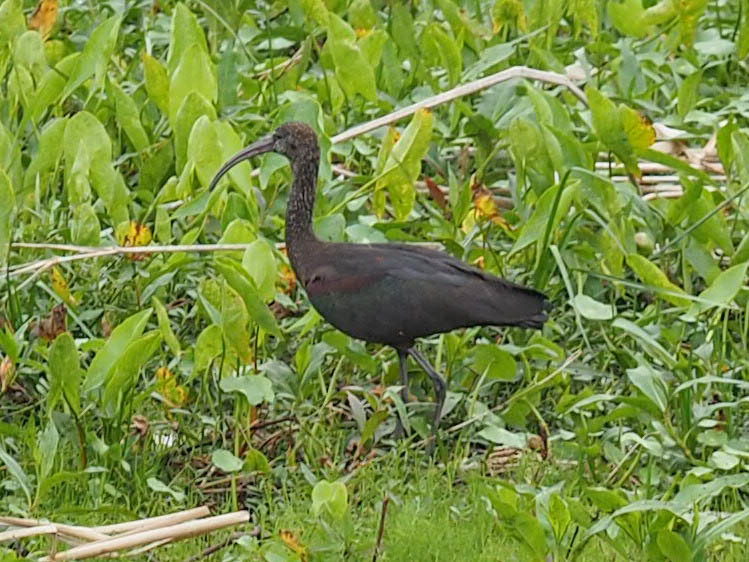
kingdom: Animalia
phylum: Chordata
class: Aves
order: Pelecaniformes
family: Threskiornithidae
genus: Plegadis
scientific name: Plegadis falcinellus
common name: Glossy ibis
